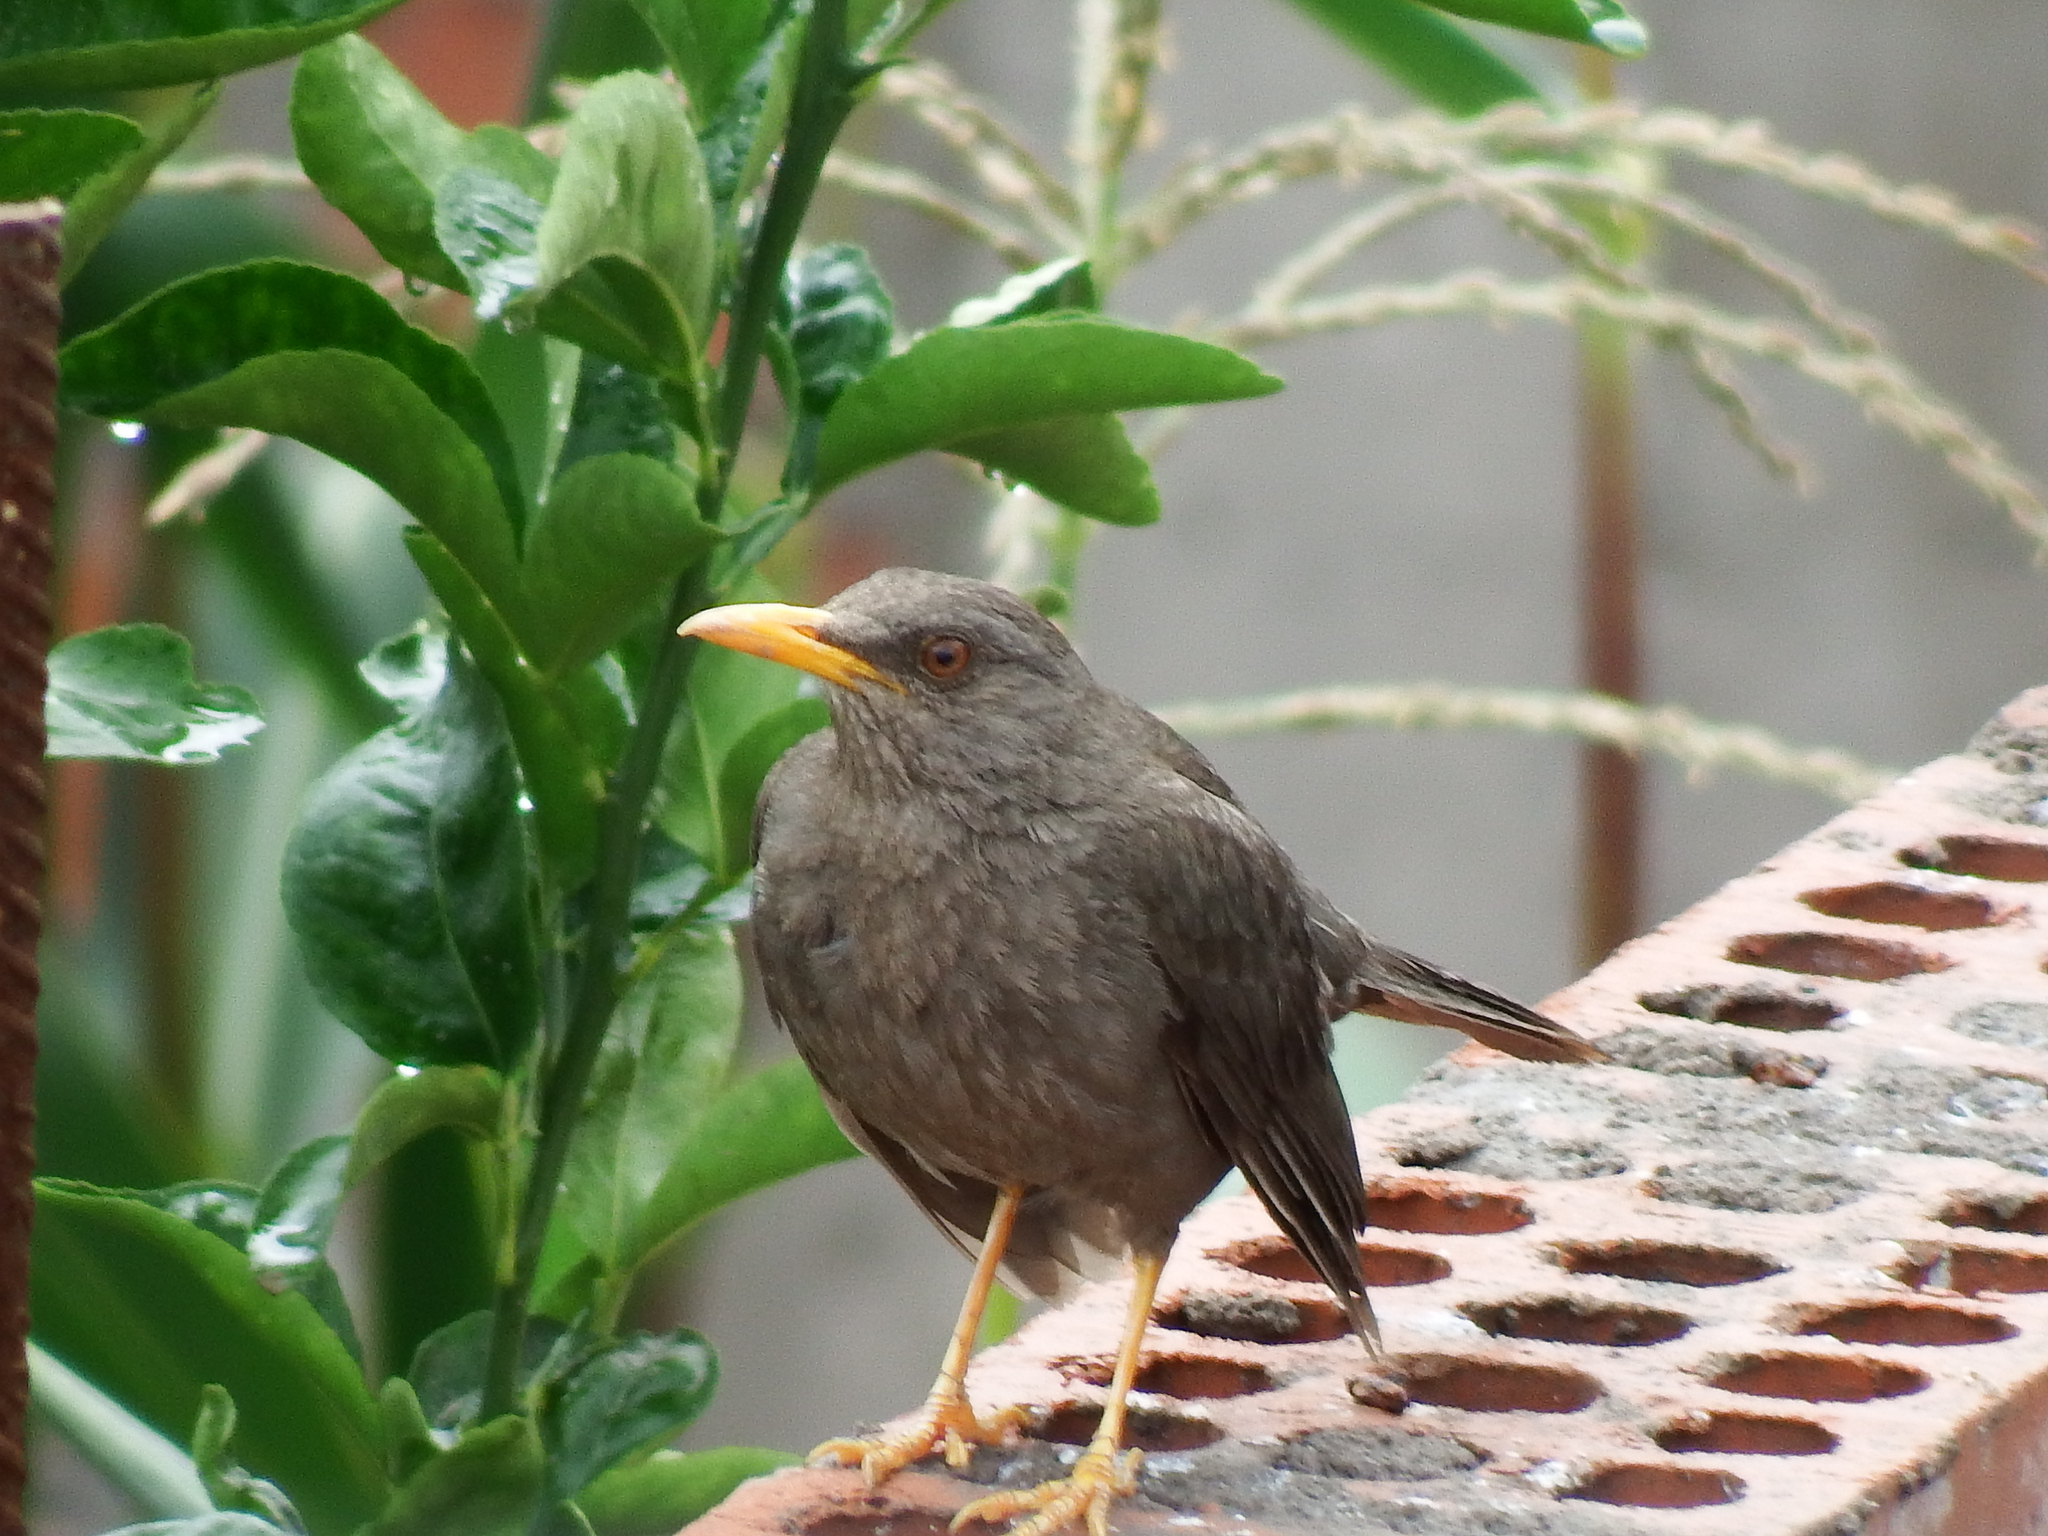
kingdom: Animalia
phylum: Chordata
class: Aves
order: Passeriformes
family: Turdidae
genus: Turdus
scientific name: Turdus chiguanco
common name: Chiguanco thrush
